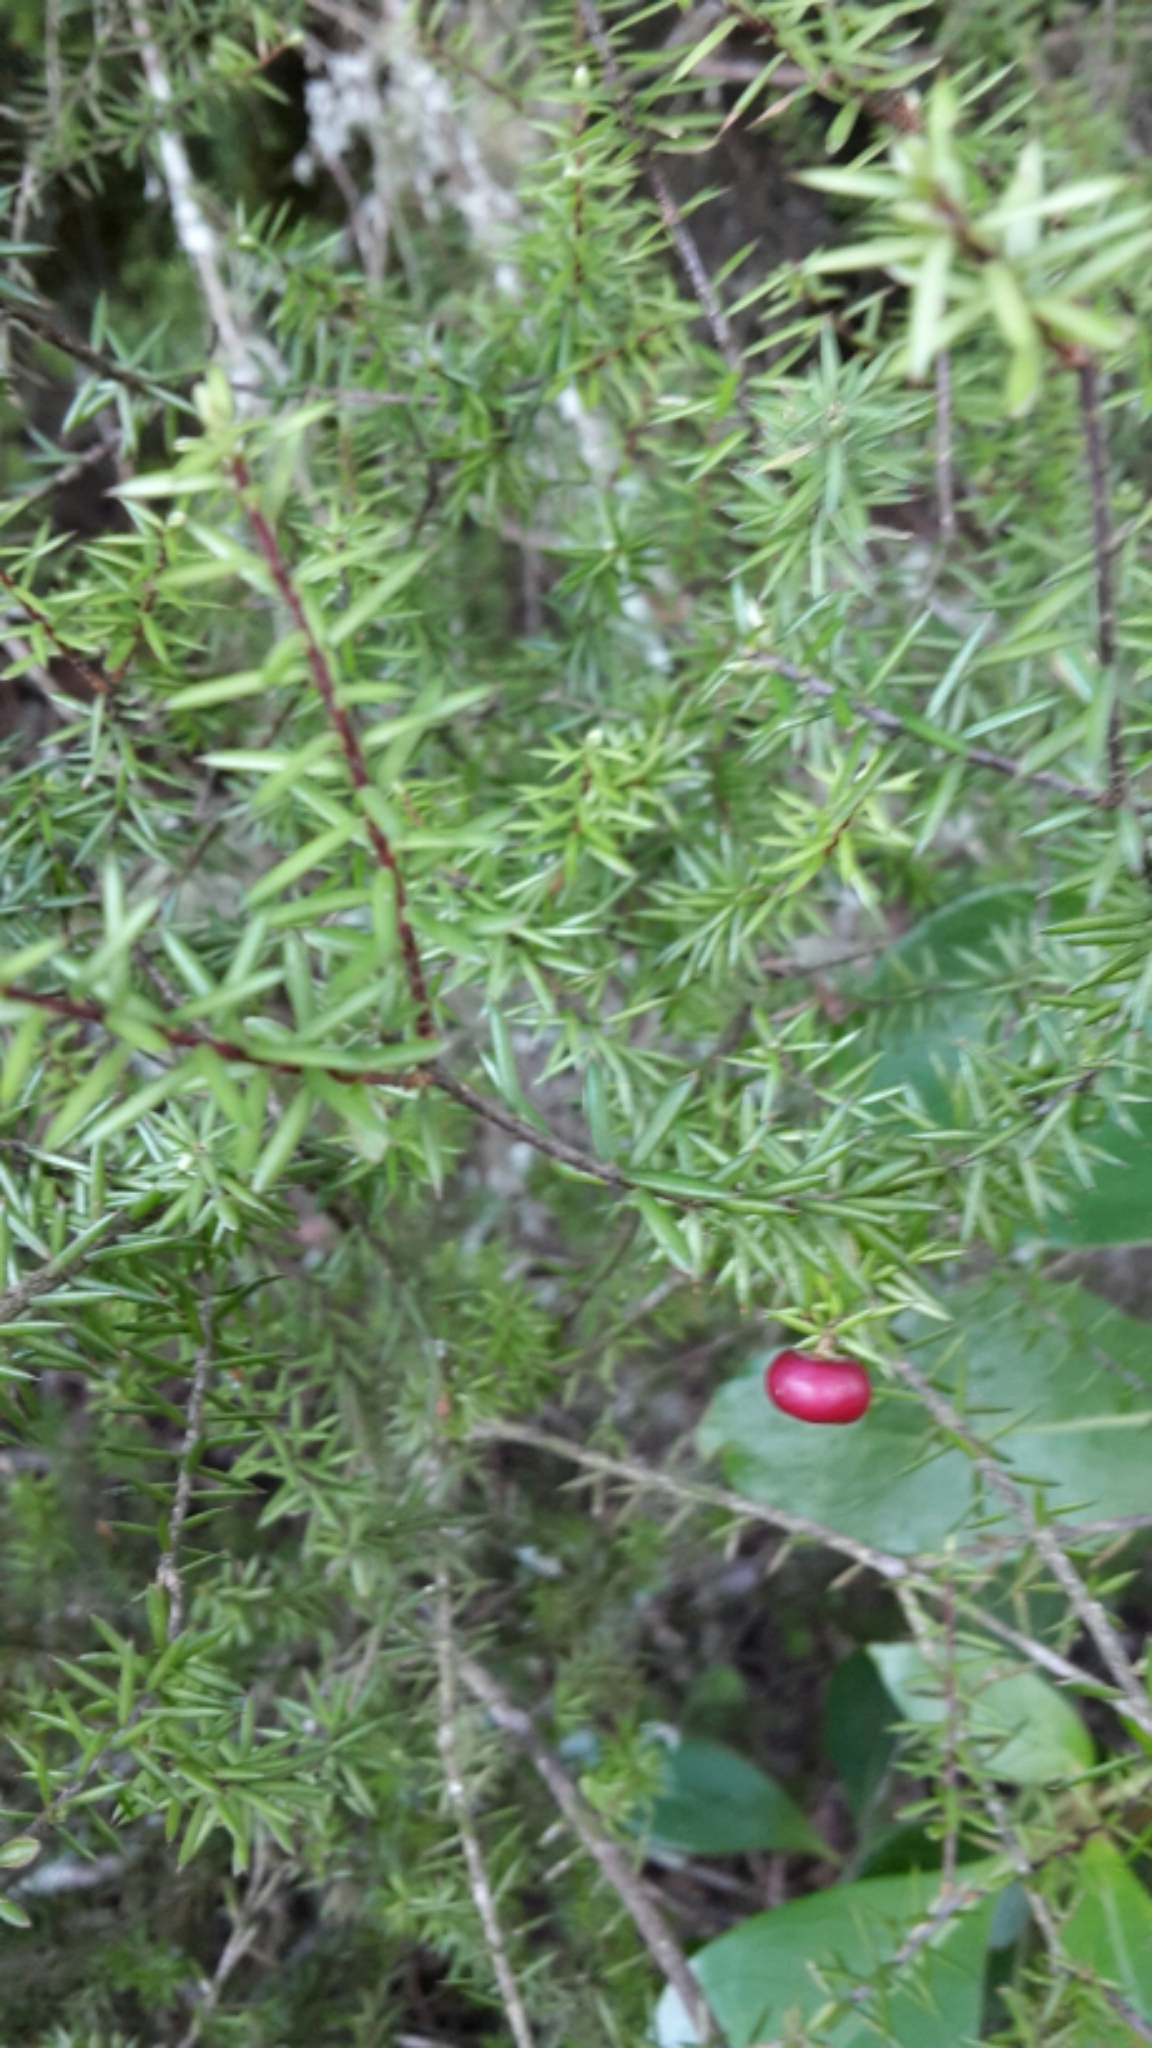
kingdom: Plantae
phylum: Tracheophyta
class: Magnoliopsida
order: Ericales
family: Ericaceae
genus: Leptecophylla
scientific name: Leptecophylla juniperina
